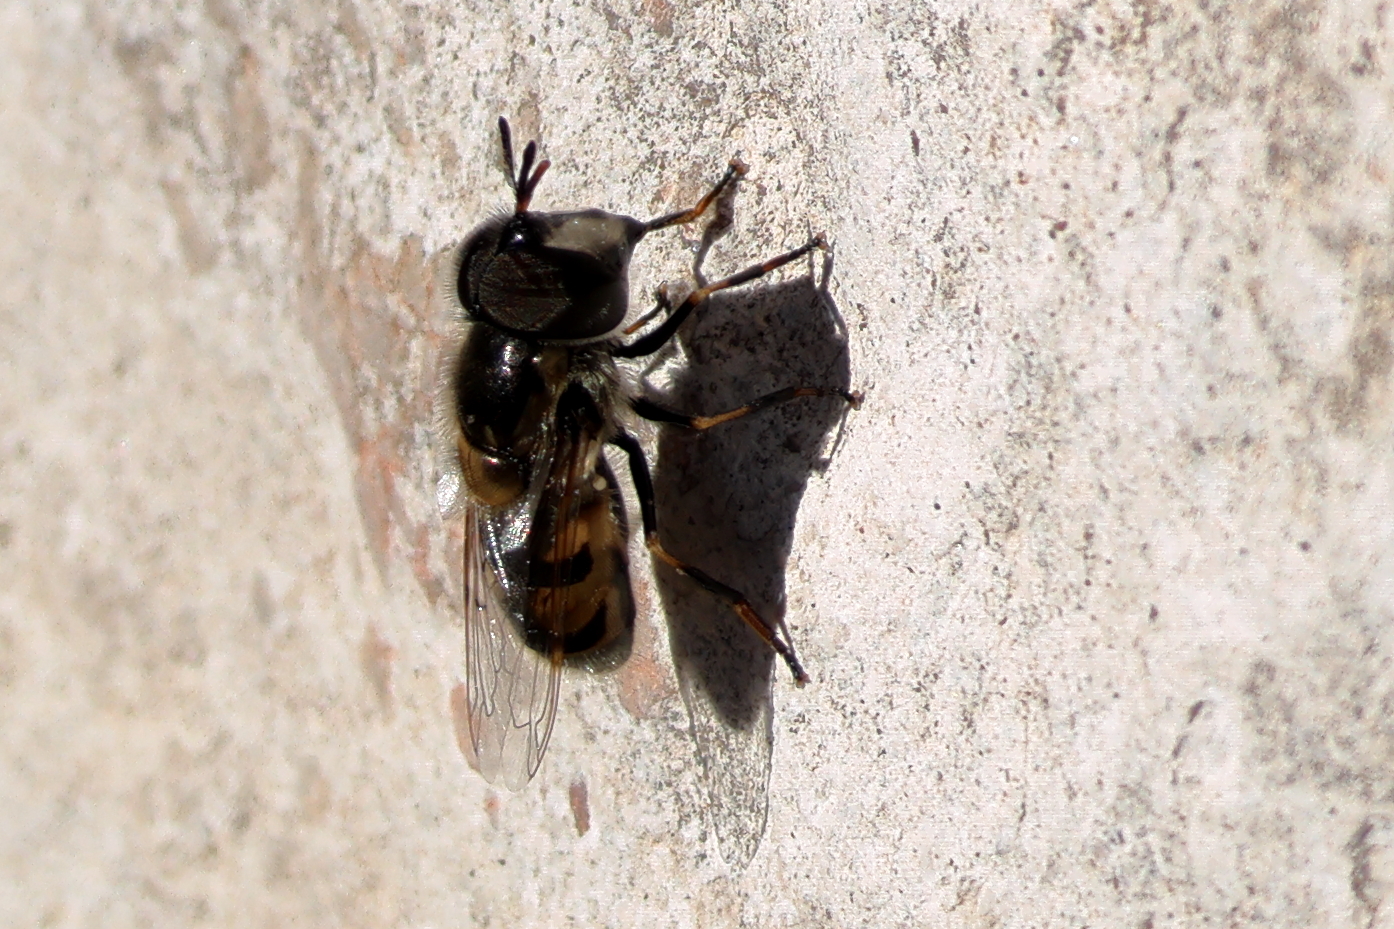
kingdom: Animalia
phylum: Arthropoda
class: Insecta
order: Diptera
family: Syrphidae
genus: Copestylum
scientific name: Copestylum marginatum
